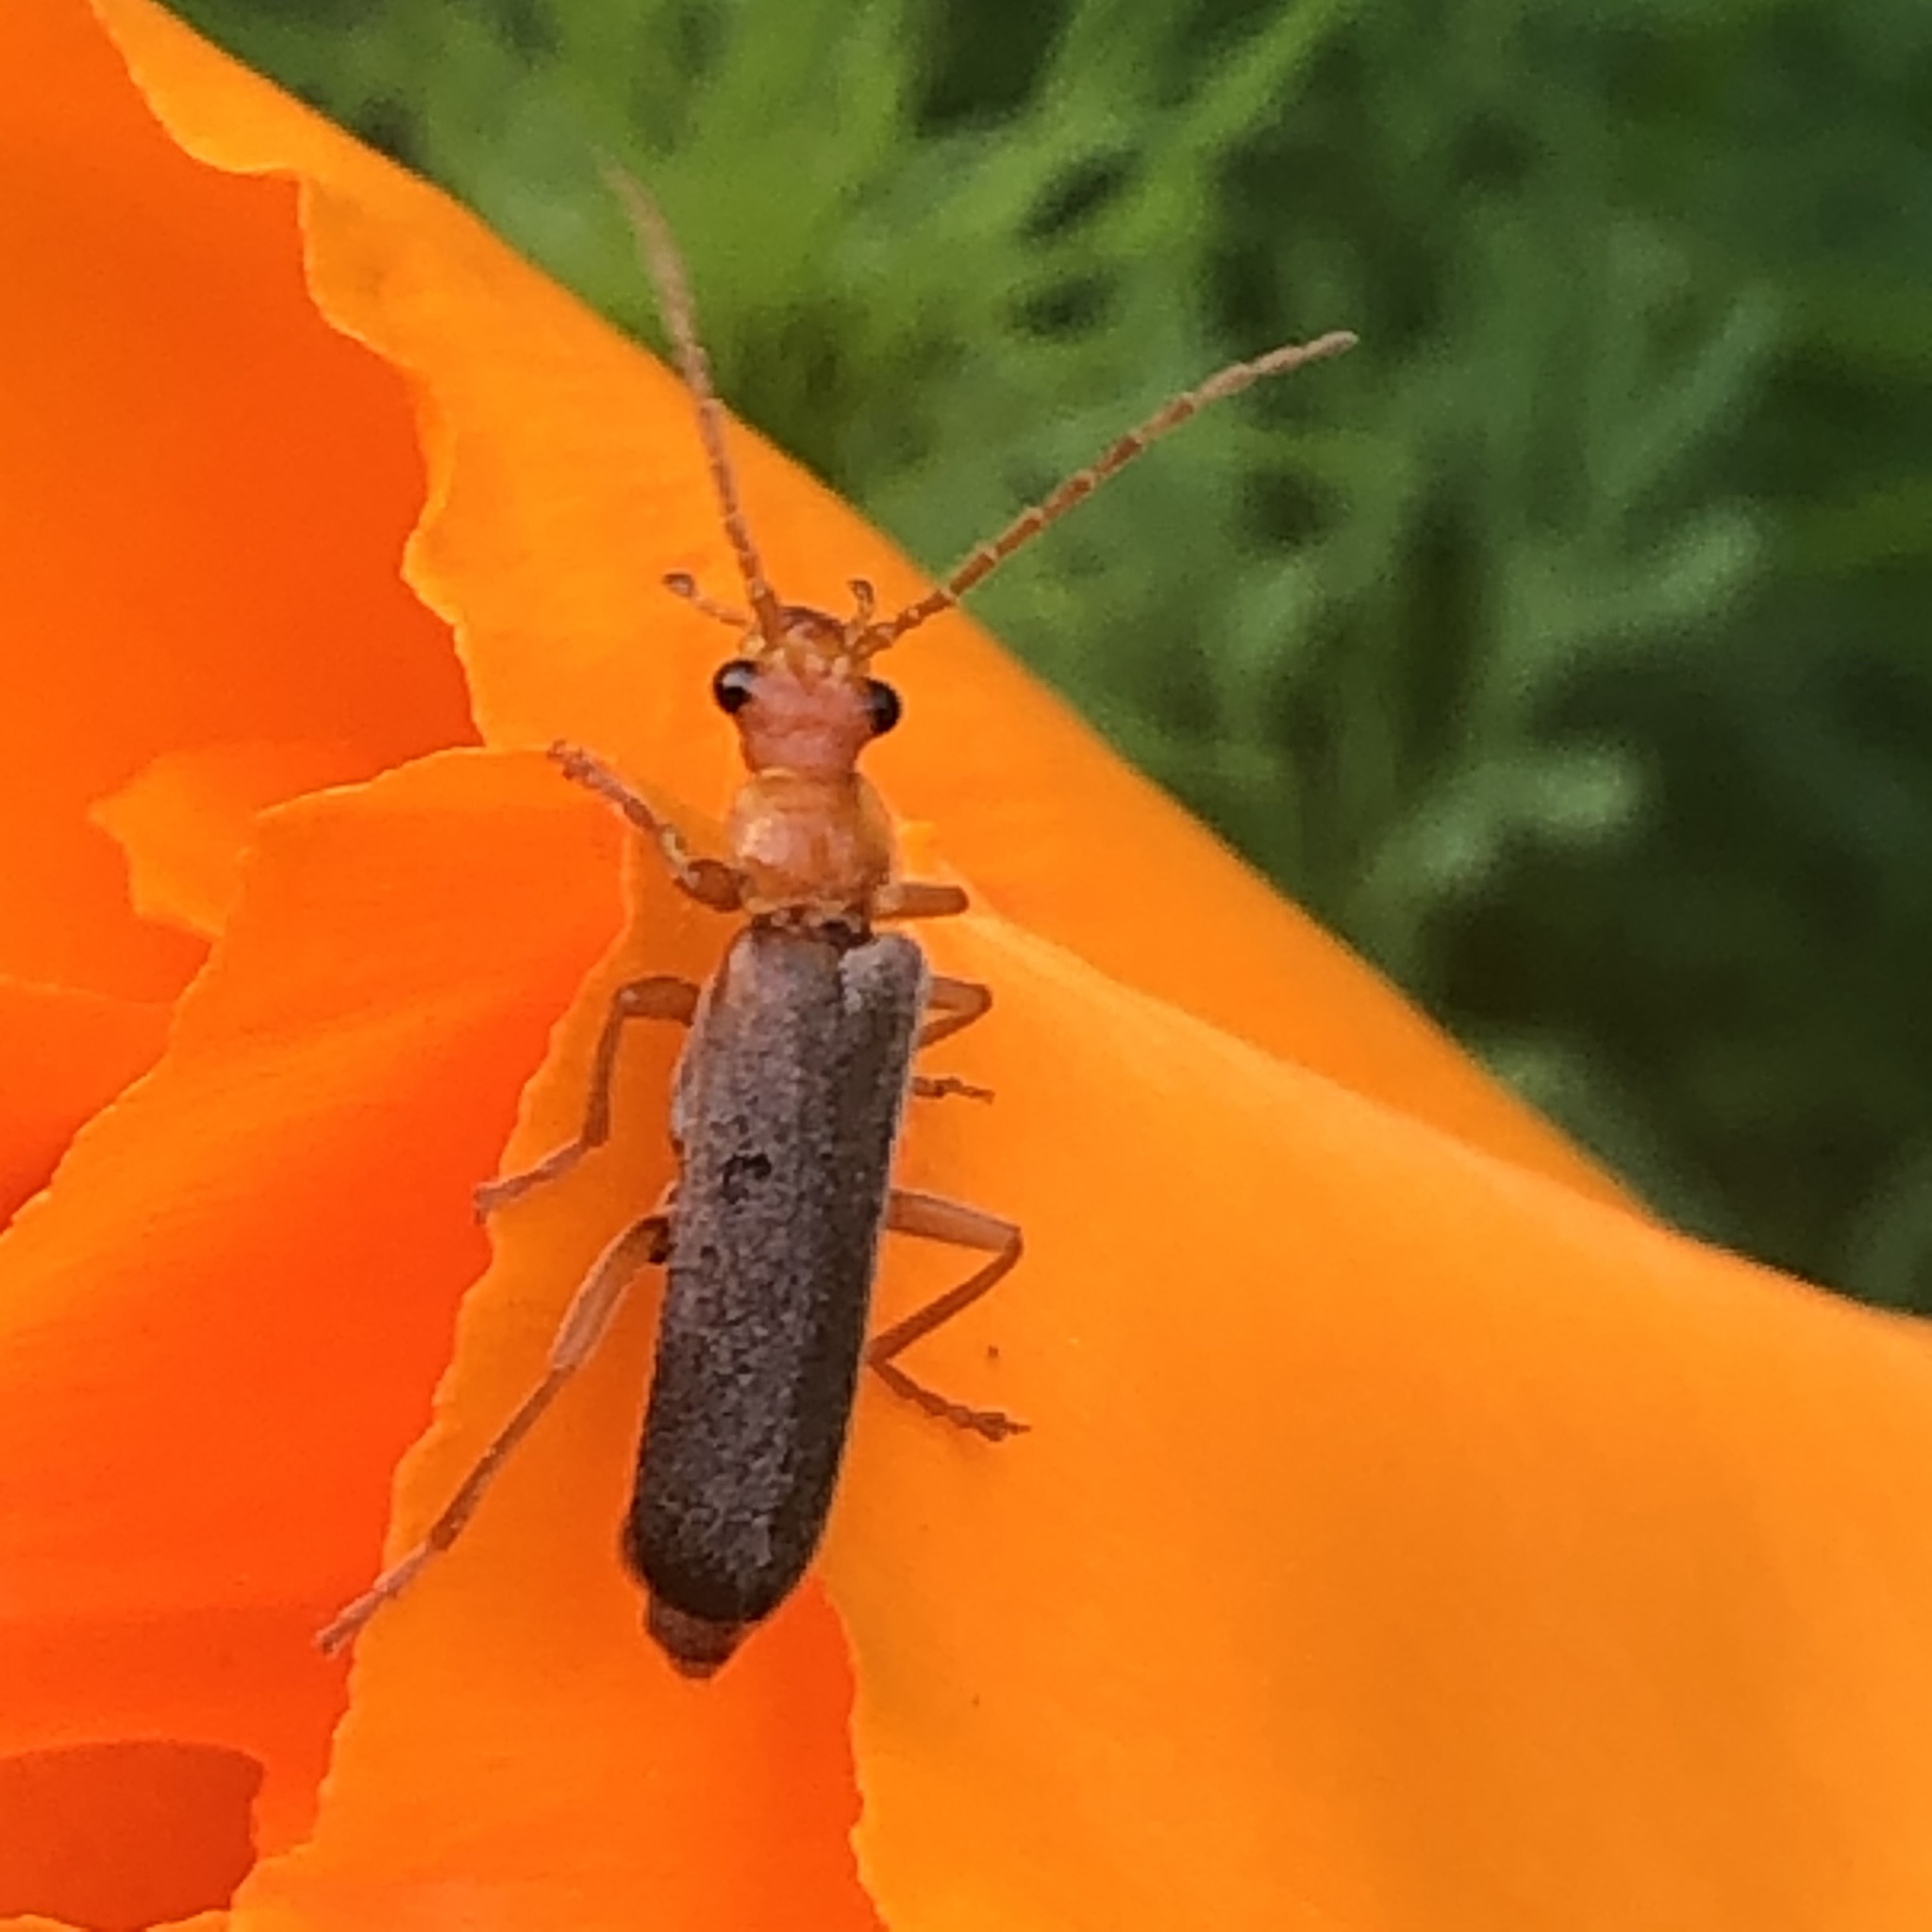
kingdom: Animalia
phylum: Arthropoda
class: Insecta
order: Coleoptera
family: Cantharidae
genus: Podabrus
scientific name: Podabrus pruinosus
